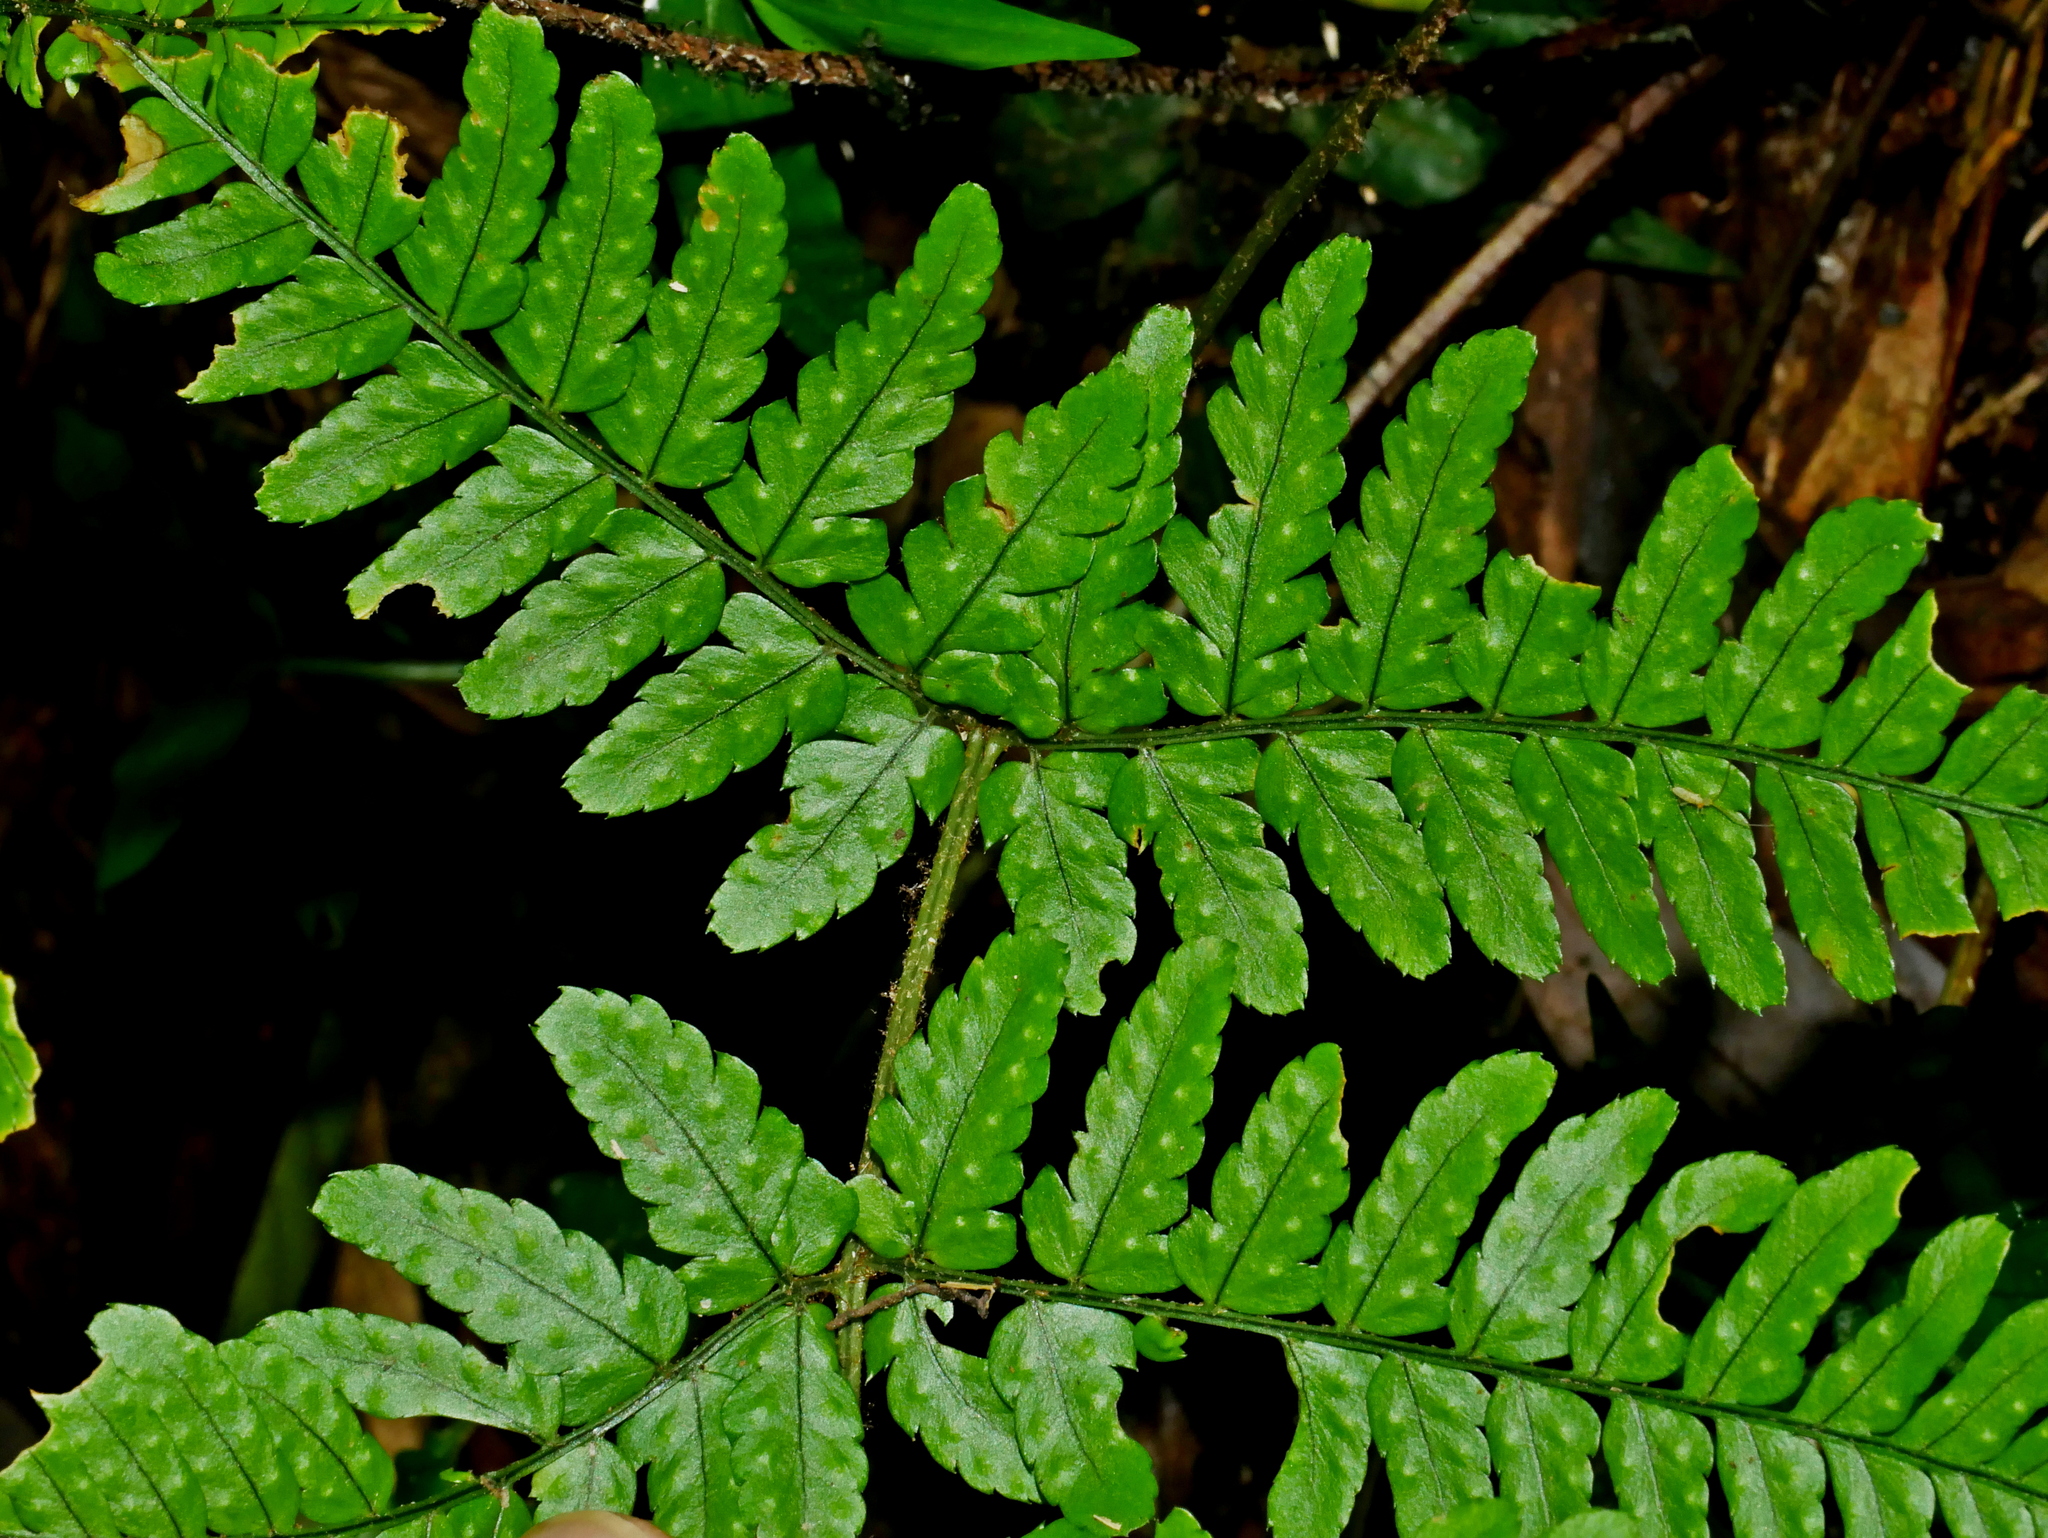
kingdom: Plantae
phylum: Tracheophyta
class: Polypodiopsida
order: Polypodiales
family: Dryopteridaceae
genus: Dryopteris
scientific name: Dryopteris subtriangularis
